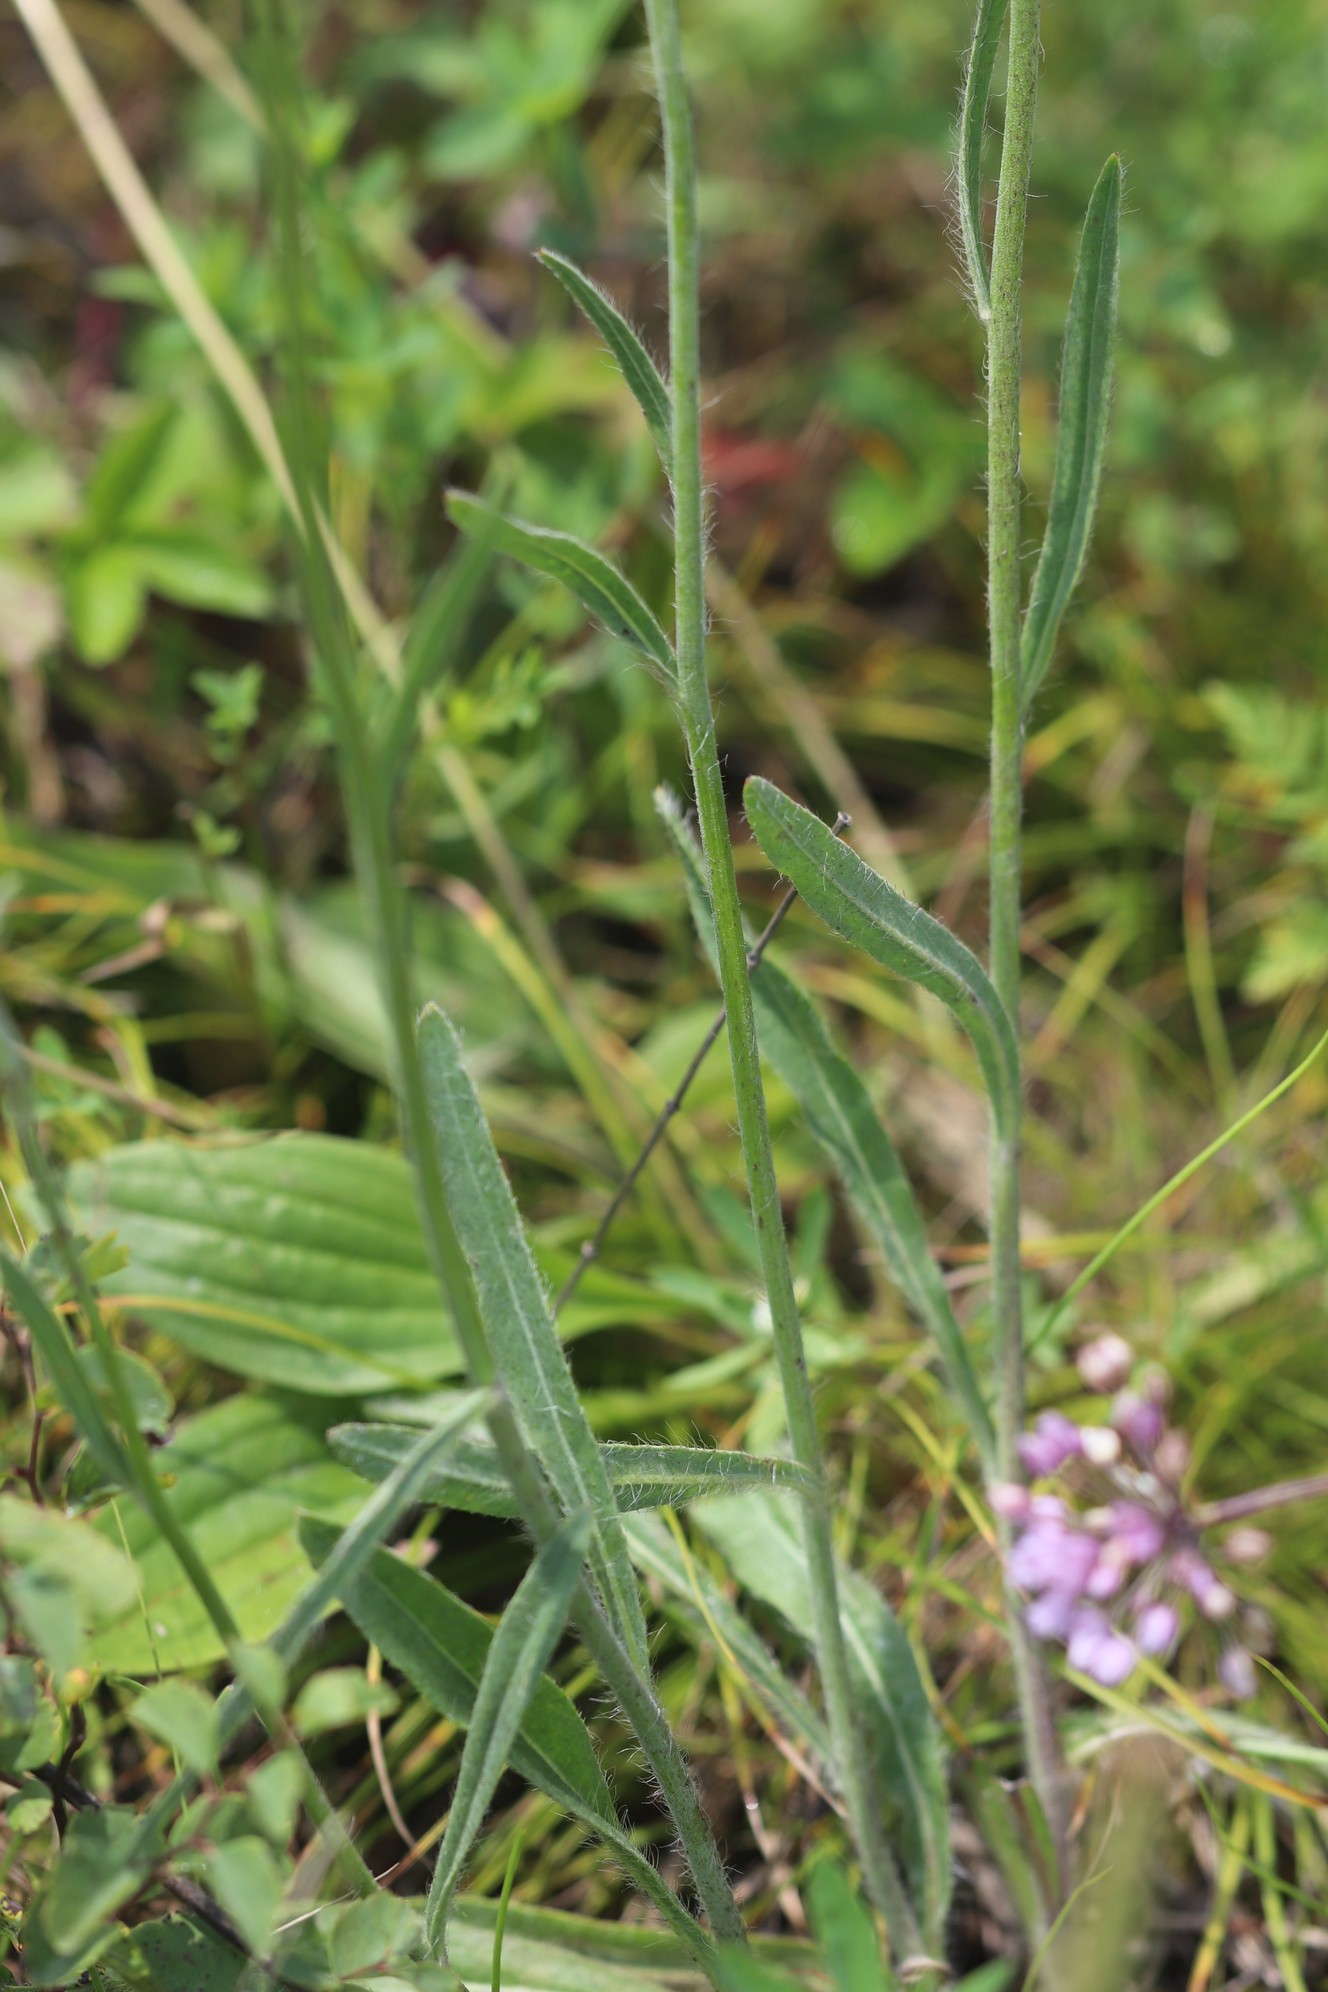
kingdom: Plantae
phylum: Tracheophyta
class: Magnoliopsida
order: Asterales
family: Asteraceae
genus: Pilosella
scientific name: Pilosella
